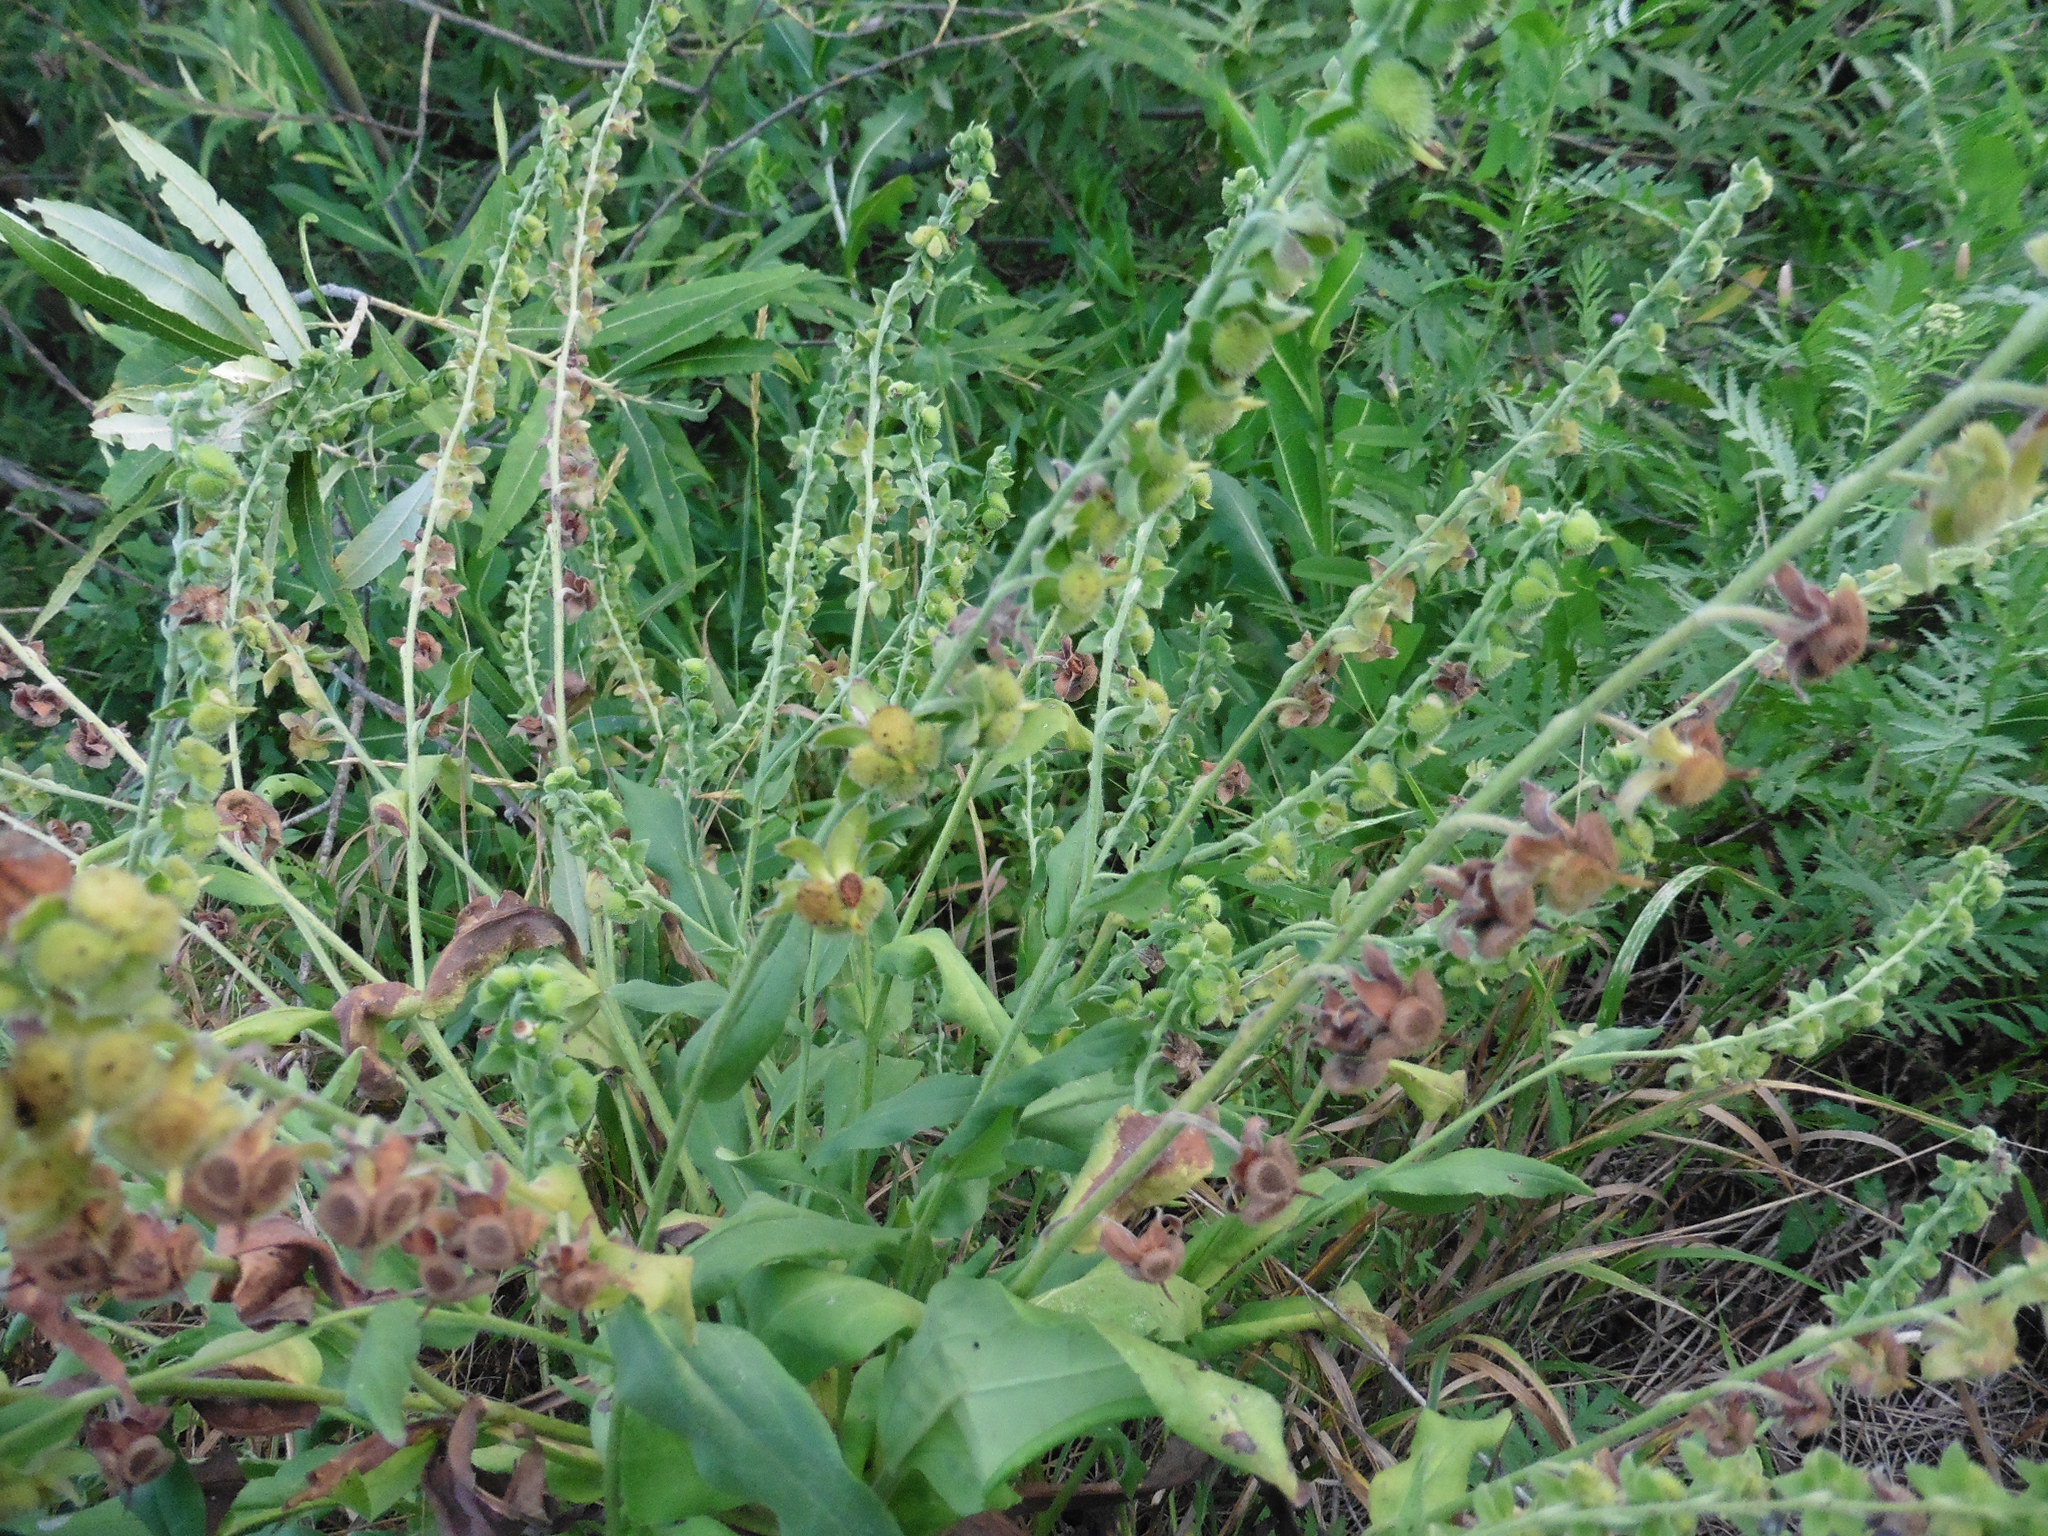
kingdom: Plantae
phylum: Tracheophyta
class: Magnoliopsida
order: Boraginales
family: Boraginaceae
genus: Cynoglossum
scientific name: Cynoglossum officinale
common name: Hound's-tongue
